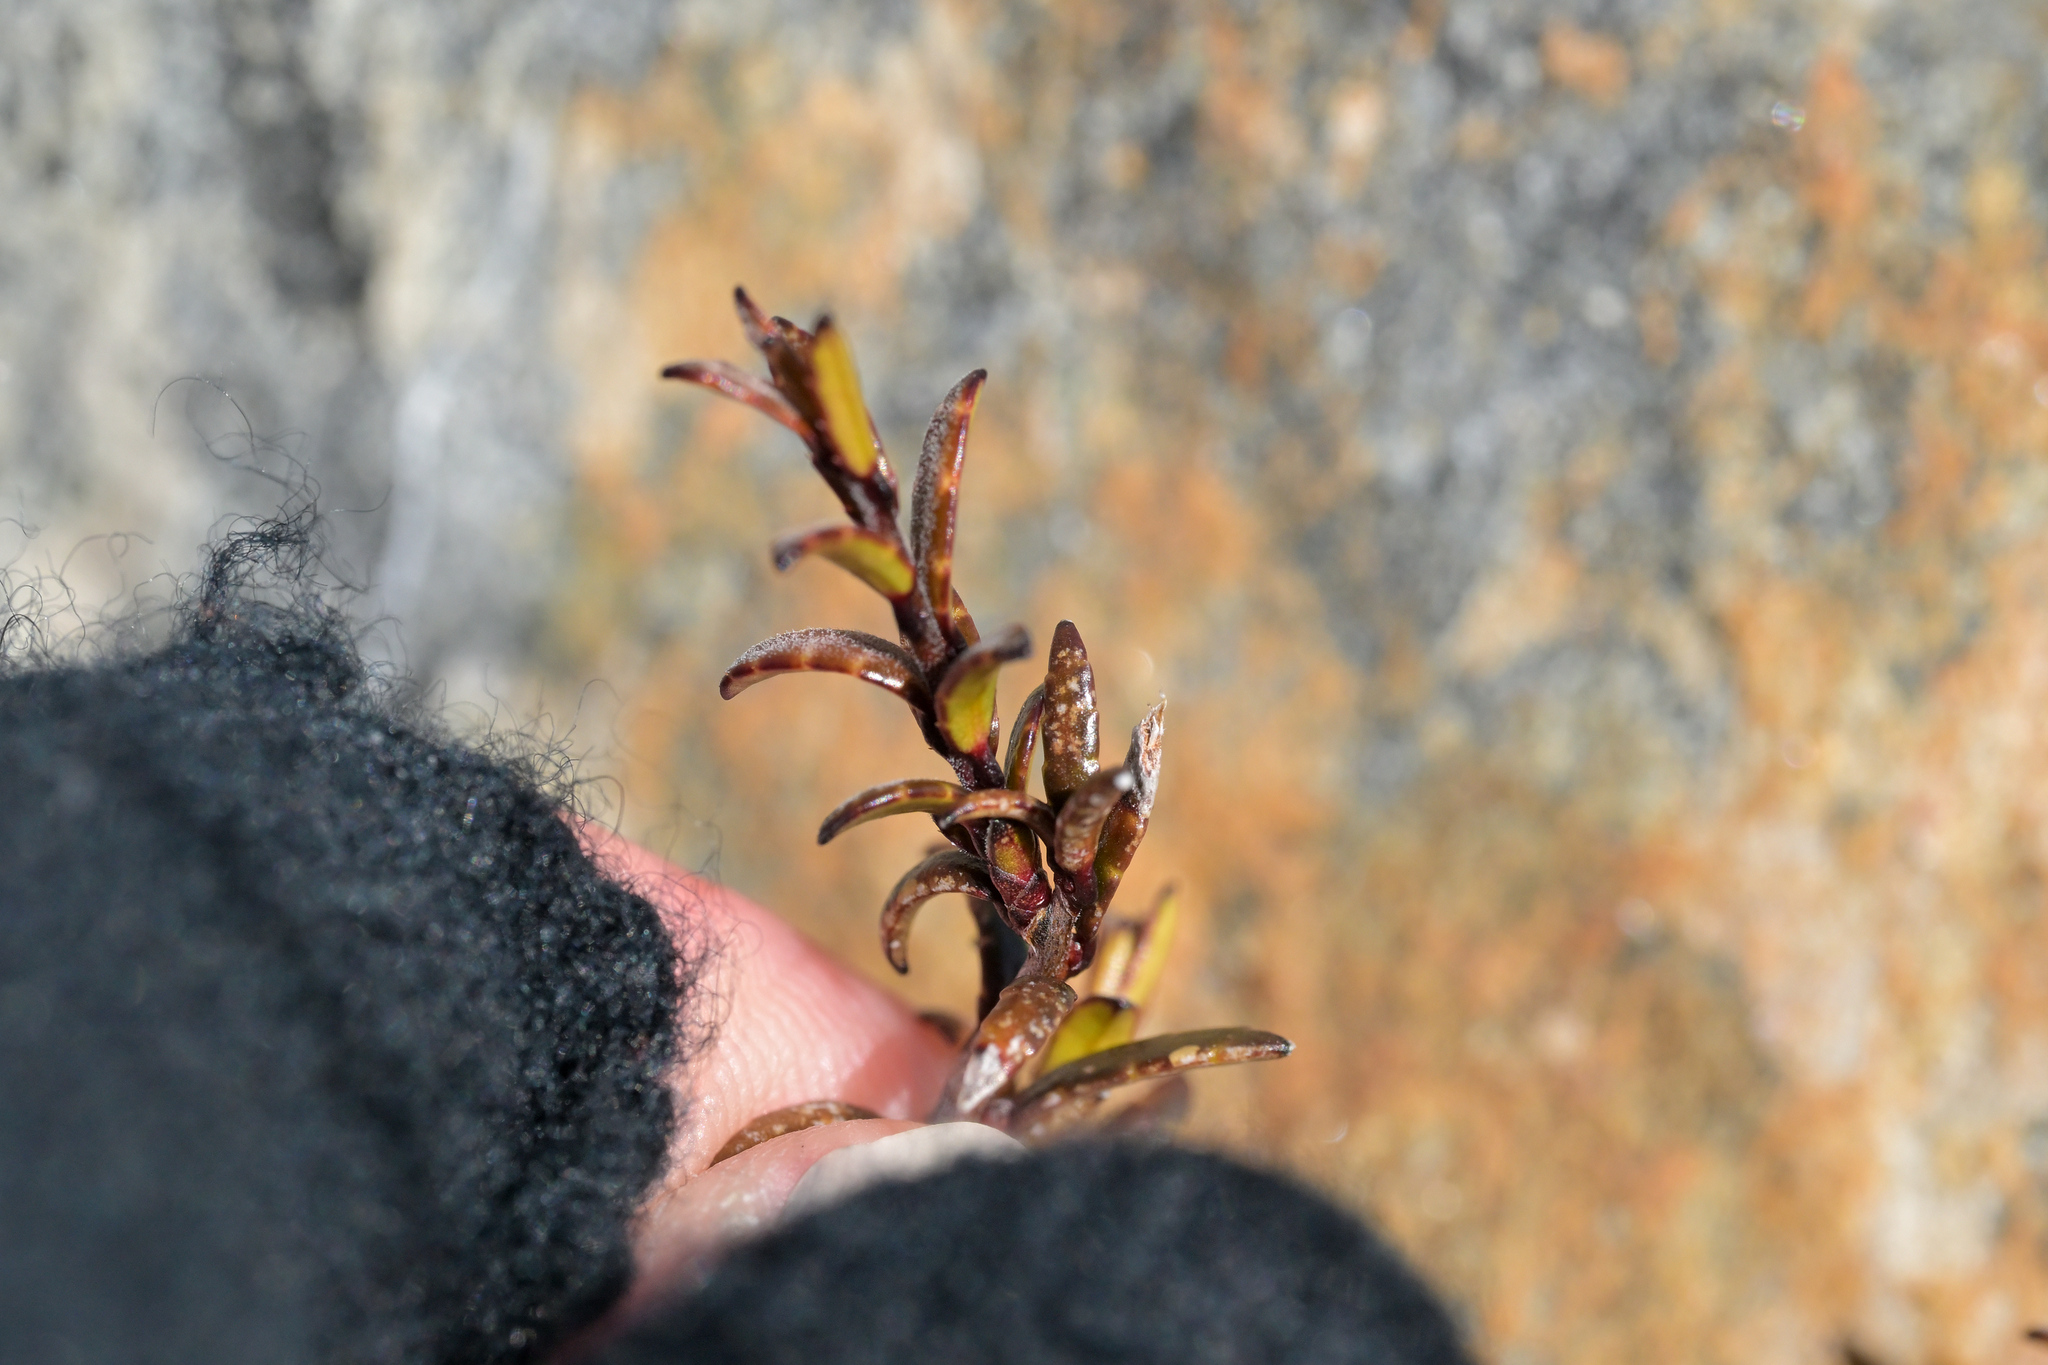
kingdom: Plantae
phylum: Tracheophyta
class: Magnoliopsida
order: Ericales
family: Ericaceae
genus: Gaultheria
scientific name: Gaultheria macrostigma
